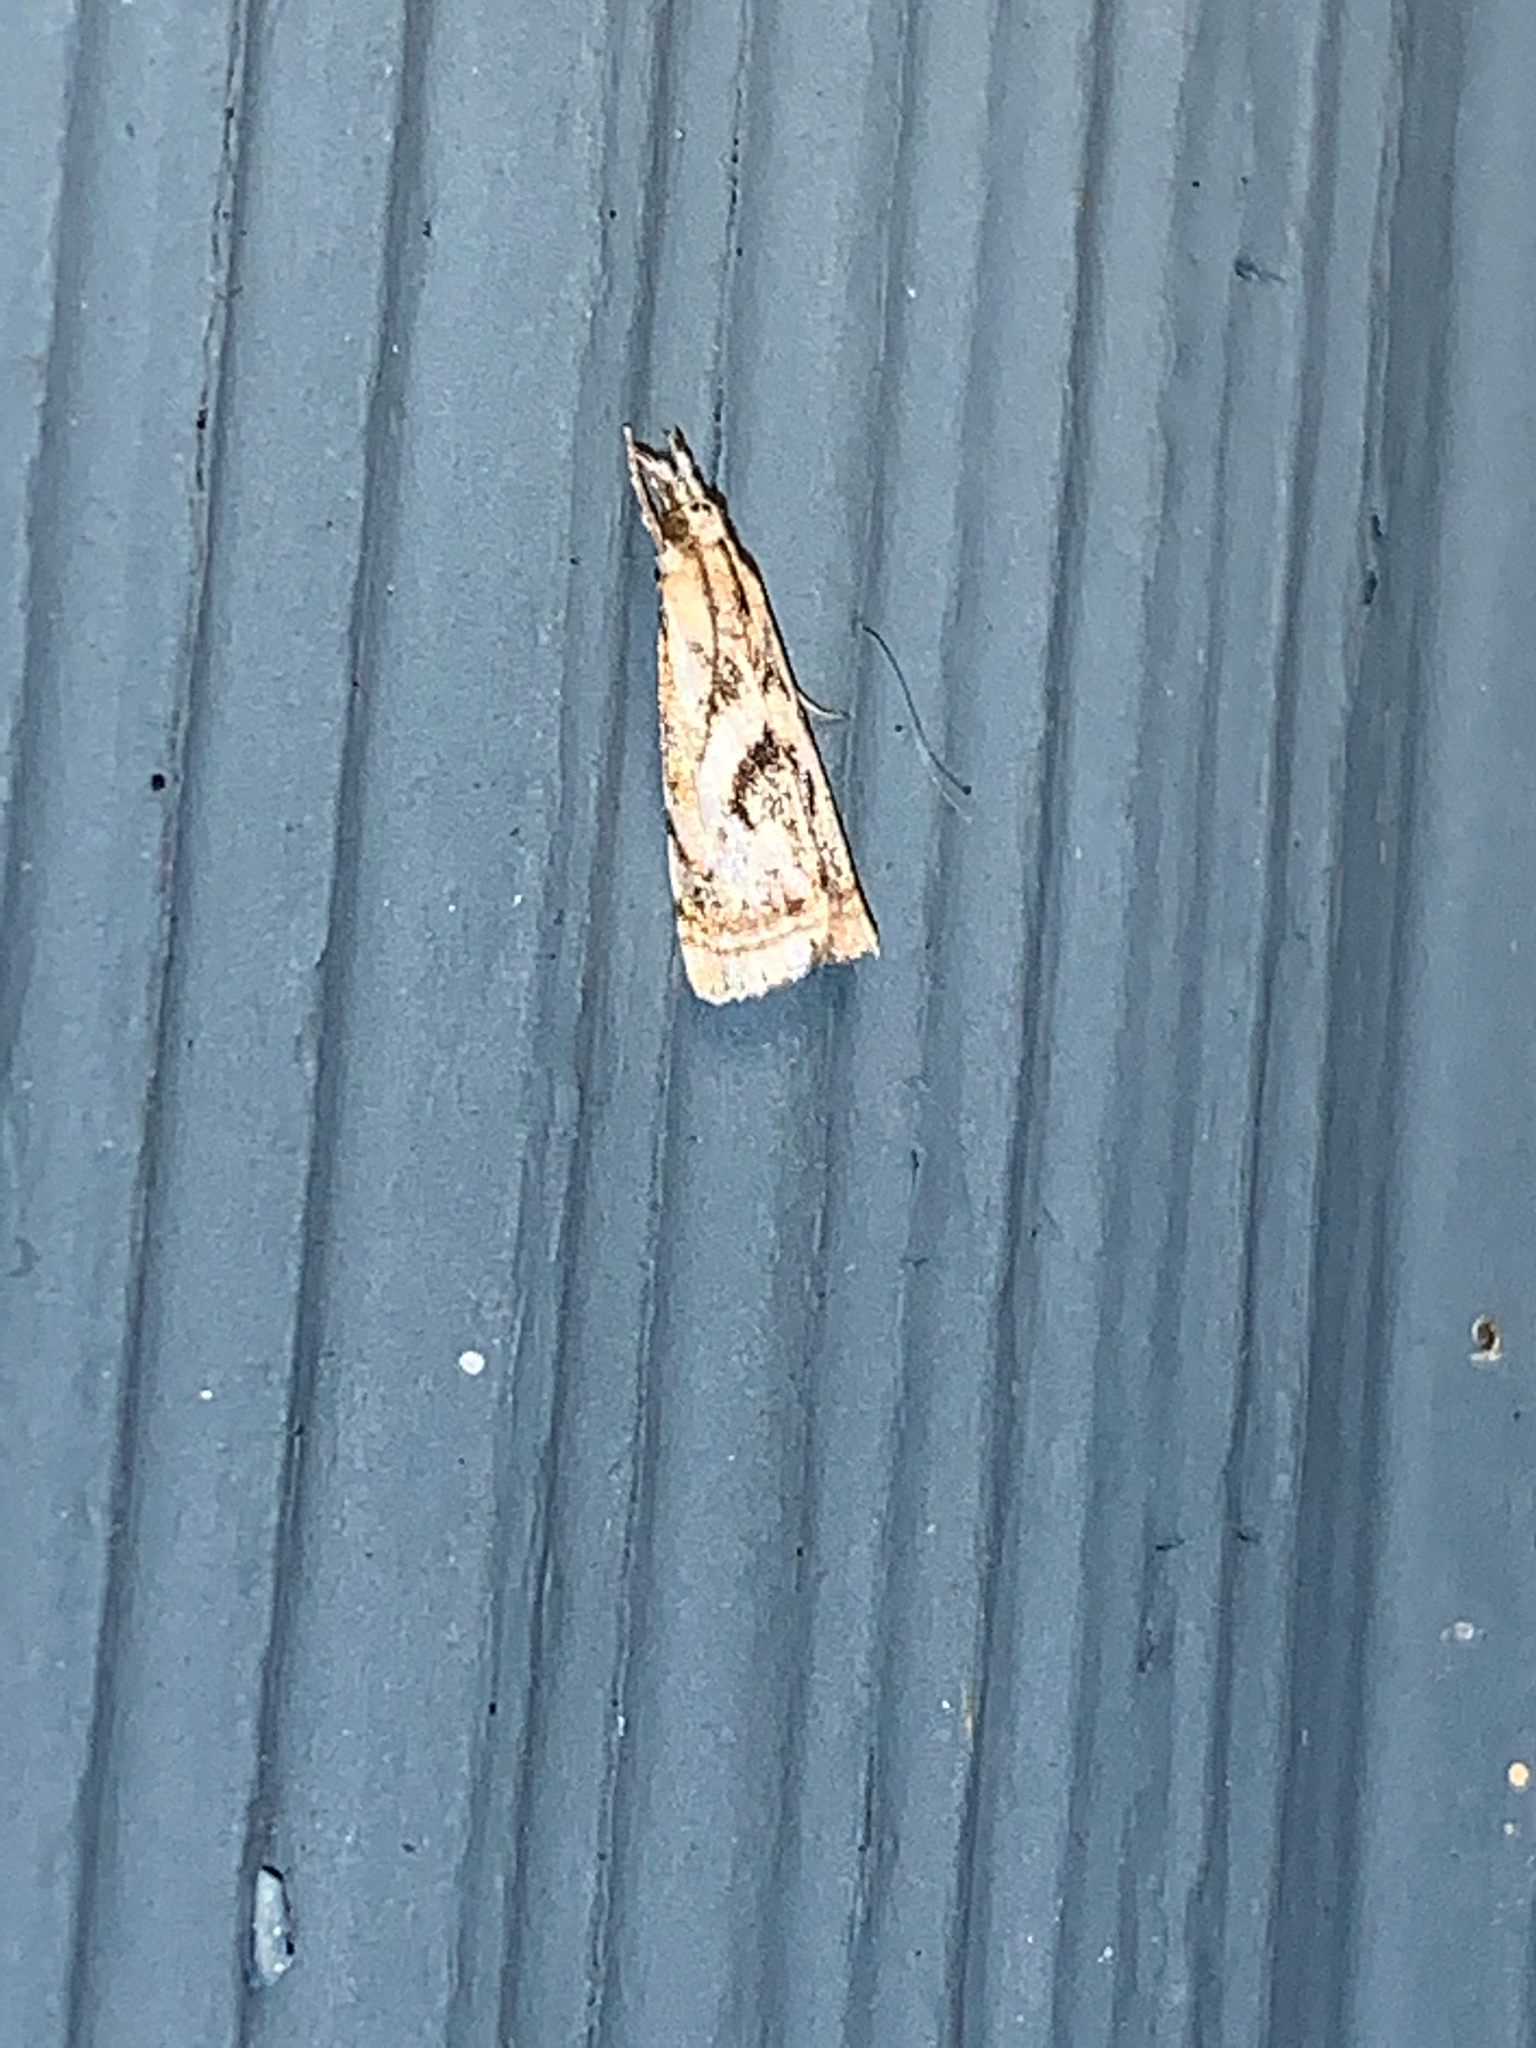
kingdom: Animalia
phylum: Arthropoda
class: Insecta
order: Lepidoptera
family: Crambidae
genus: Microcrambus
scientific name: Microcrambus elegans
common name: Elegant grass-veneer
